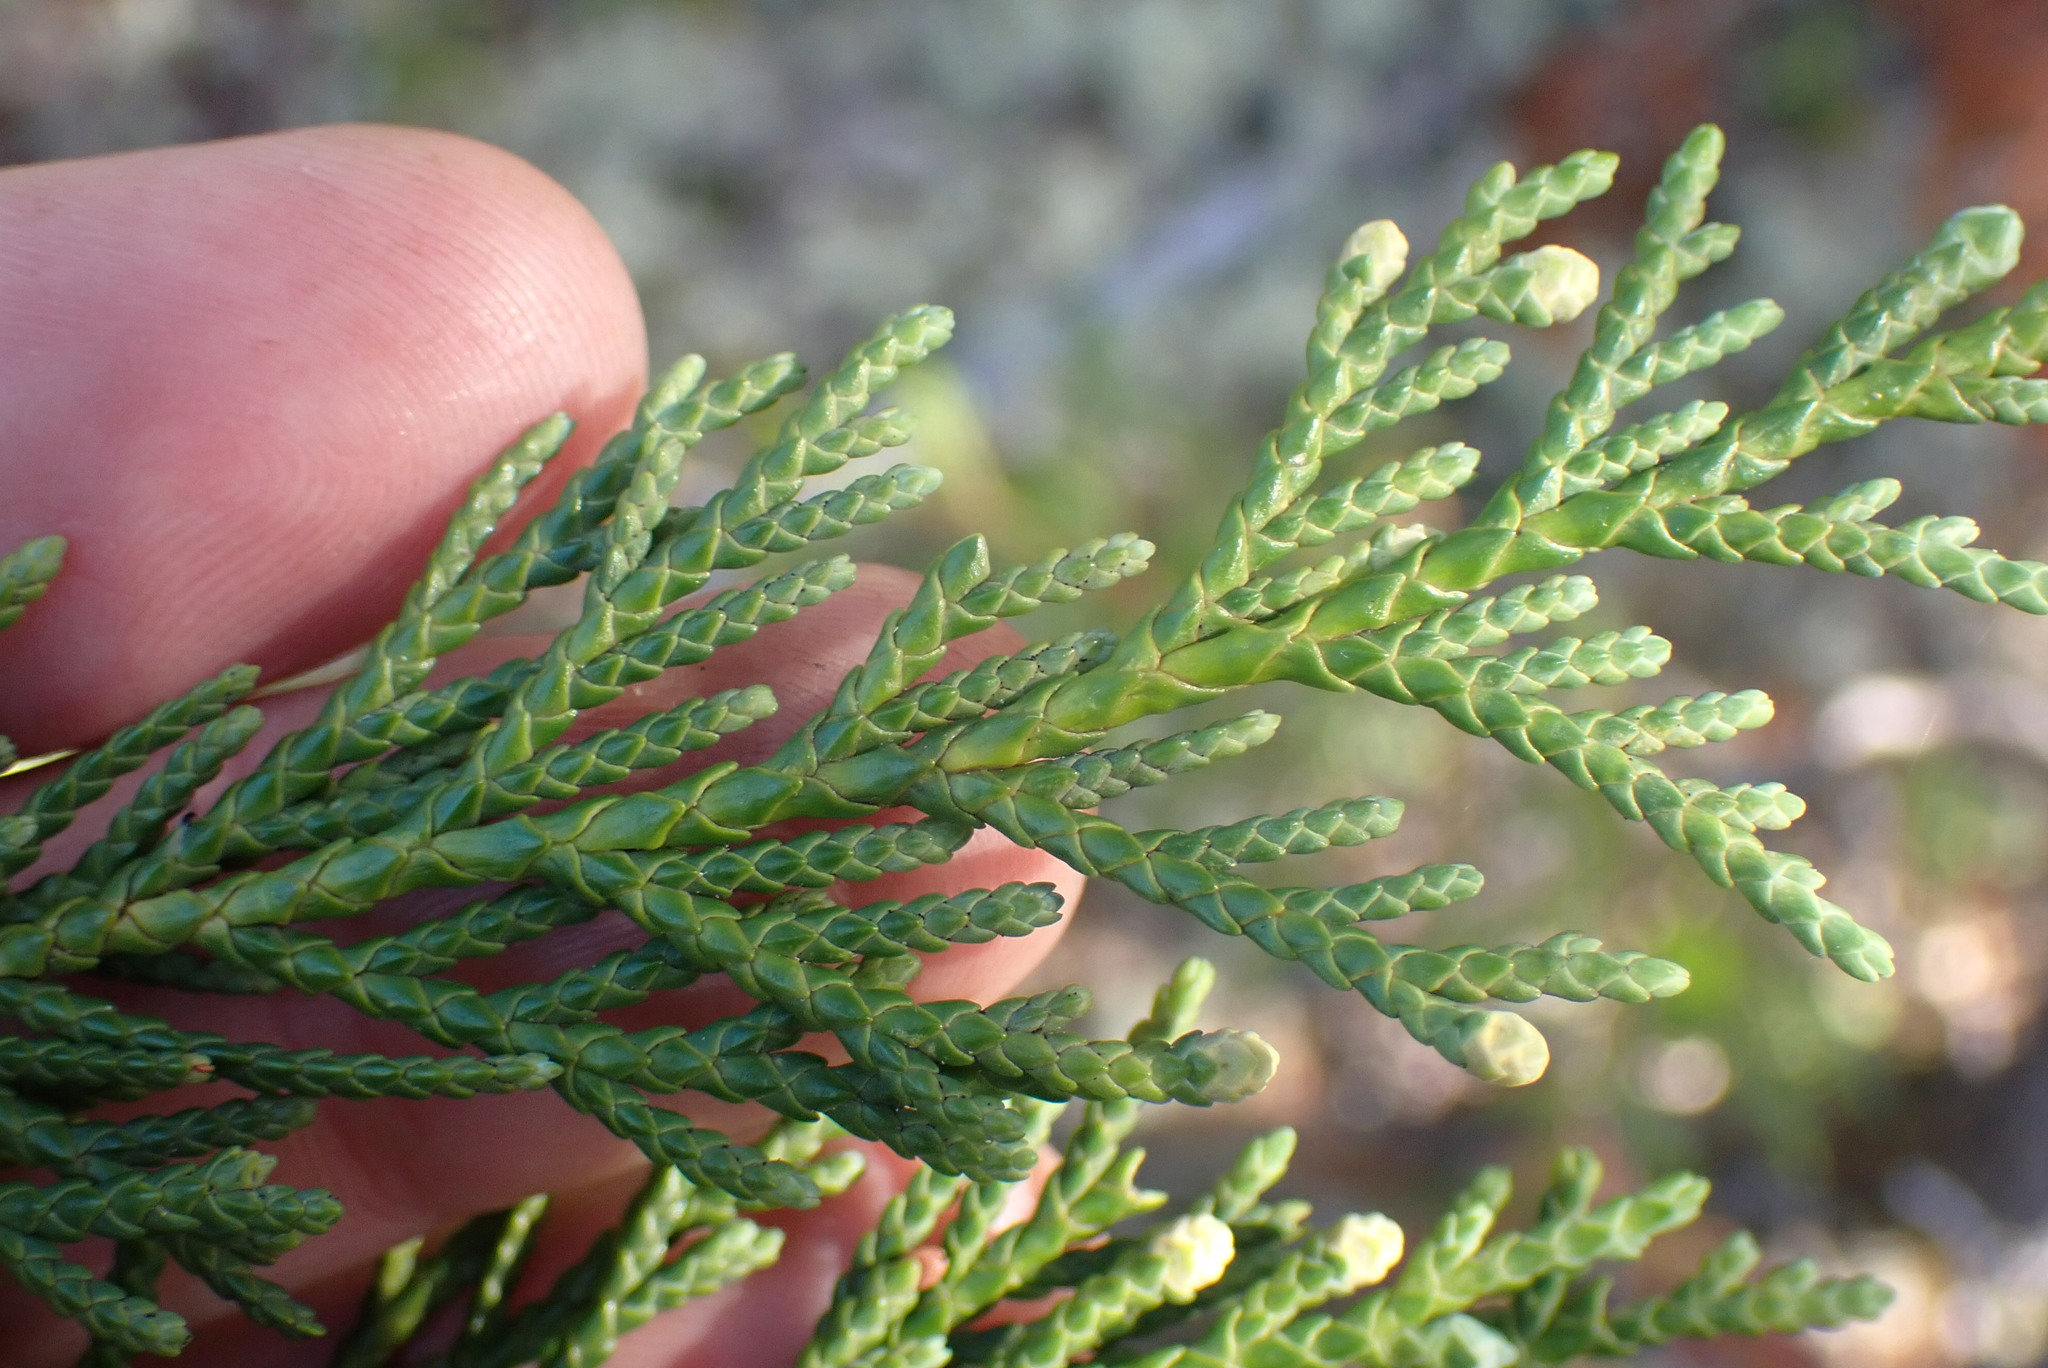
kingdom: Plantae
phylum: Tracheophyta
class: Pinopsida
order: Pinales
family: Cupressaceae
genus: Xanthocyparis
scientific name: Xanthocyparis nootkatensis
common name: Nootka cypress
